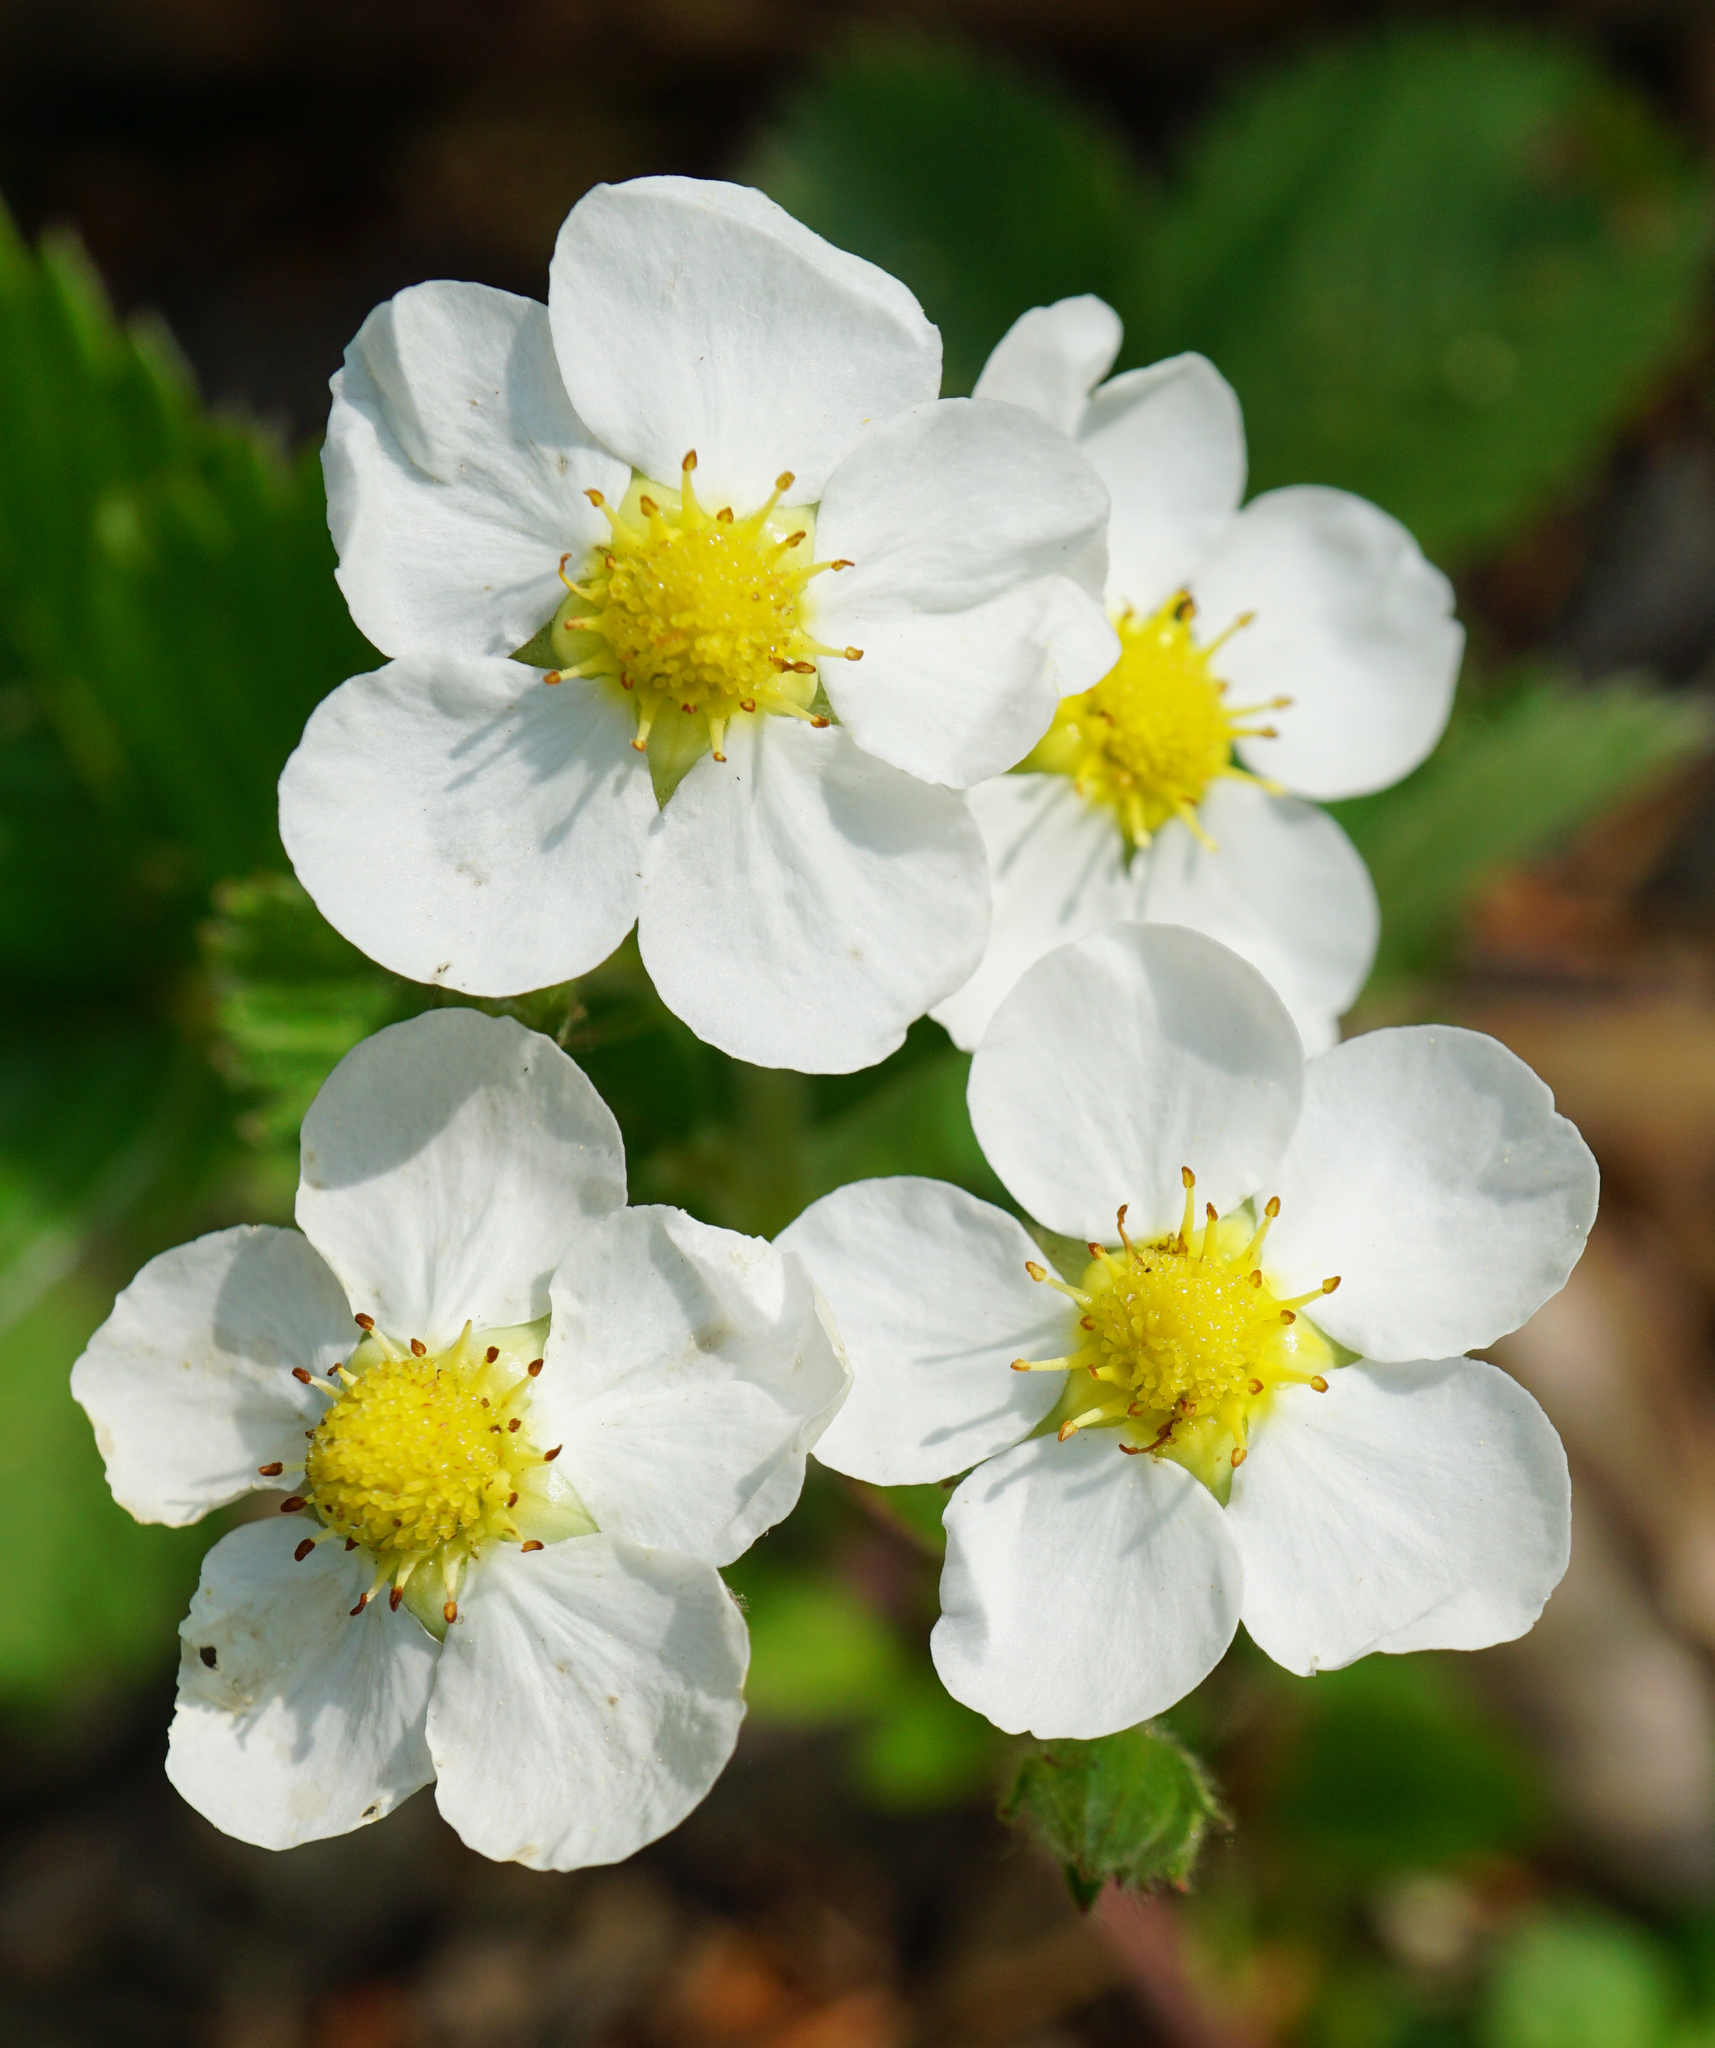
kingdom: Plantae
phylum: Tracheophyta
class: Magnoliopsida
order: Rosales
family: Rosaceae
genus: Fragaria
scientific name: Fragaria moschata
